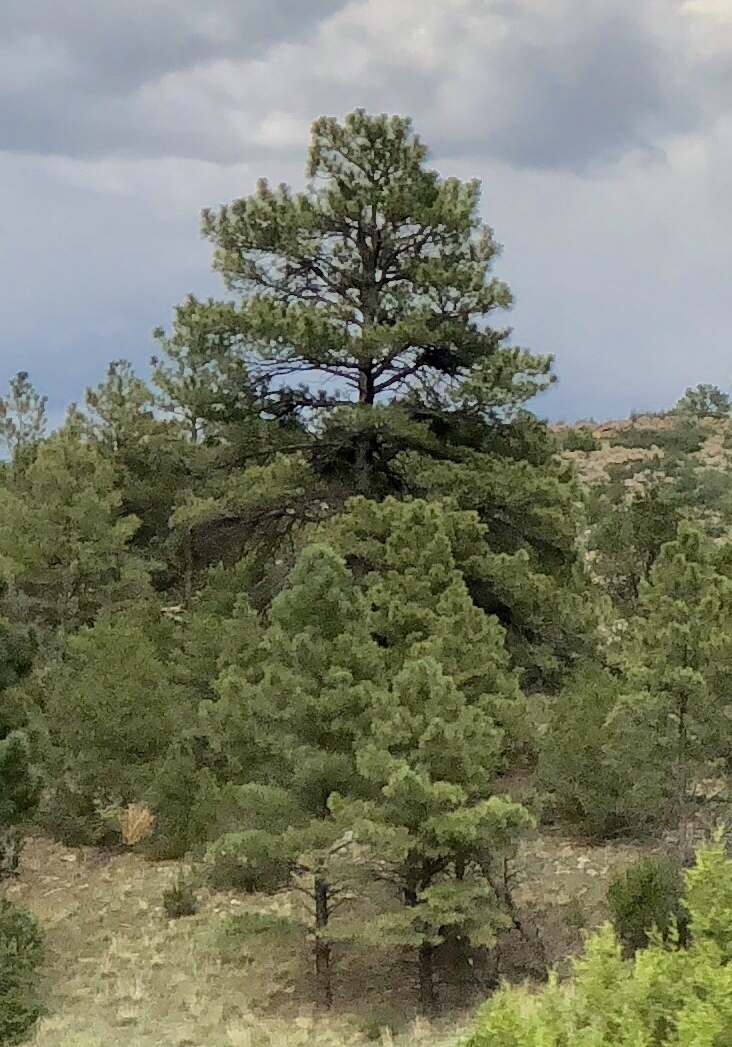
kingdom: Plantae
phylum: Tracheophyta
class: Pinopsida
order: Pinales
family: Pinaceae
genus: Pinus
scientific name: Pinus ponderosa
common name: Western yellow-pine
